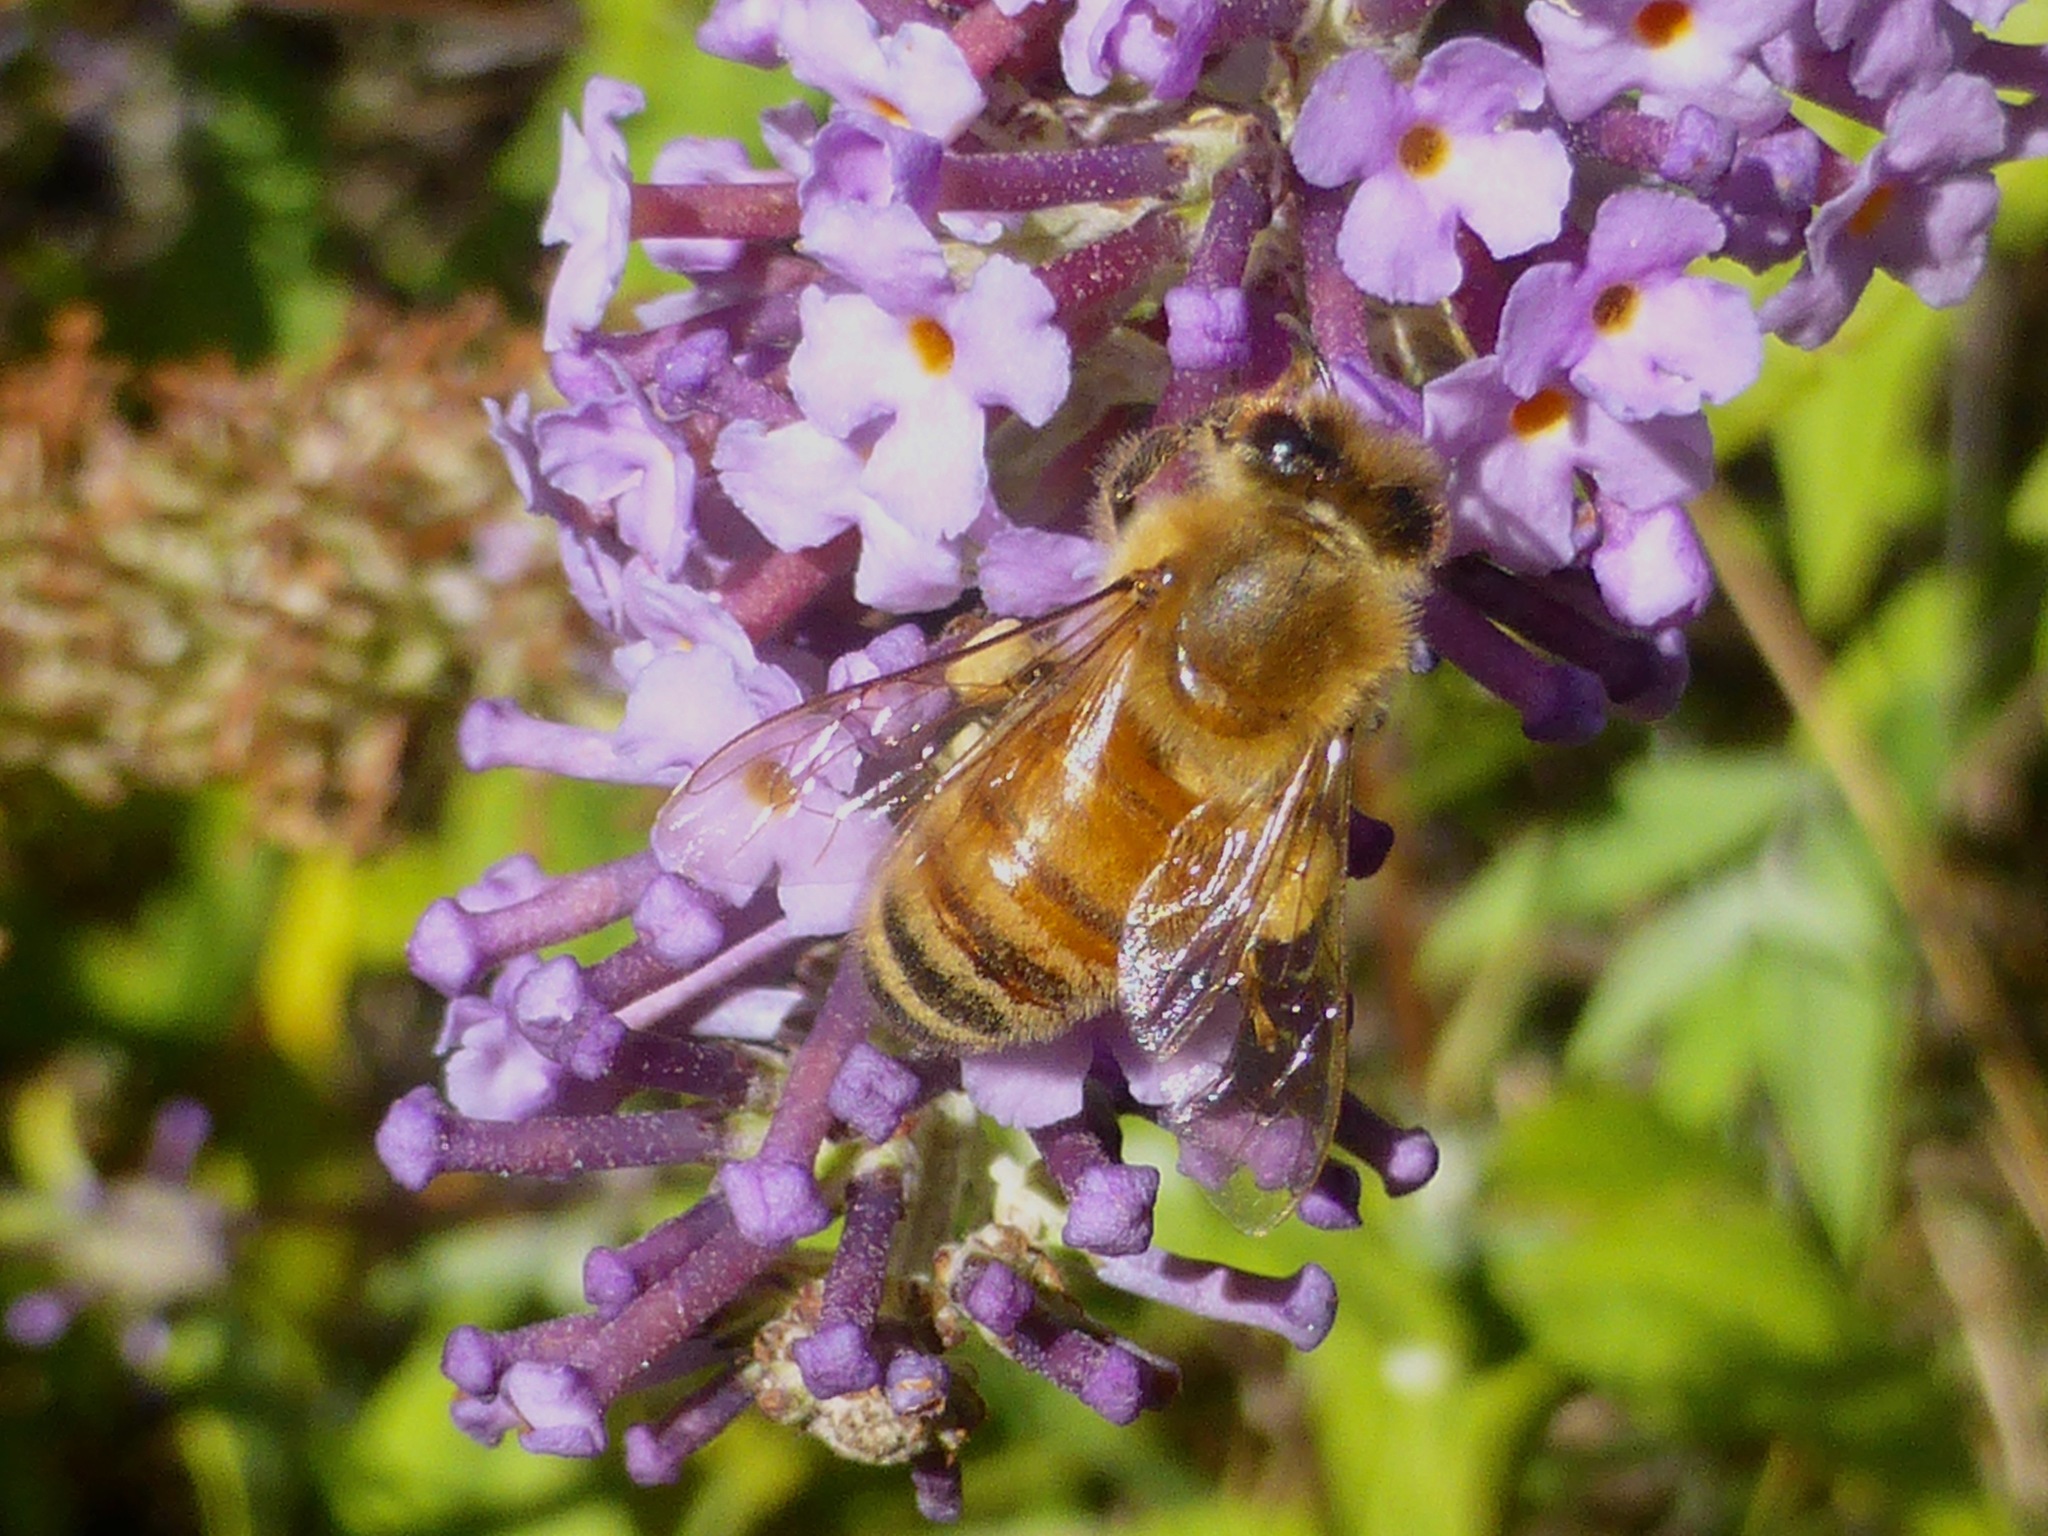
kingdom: Animalia
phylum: Arthropoda
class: Insecta
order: Hymenoptera
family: Apidae
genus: Apis
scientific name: Apis mellifera
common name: Honey bee
